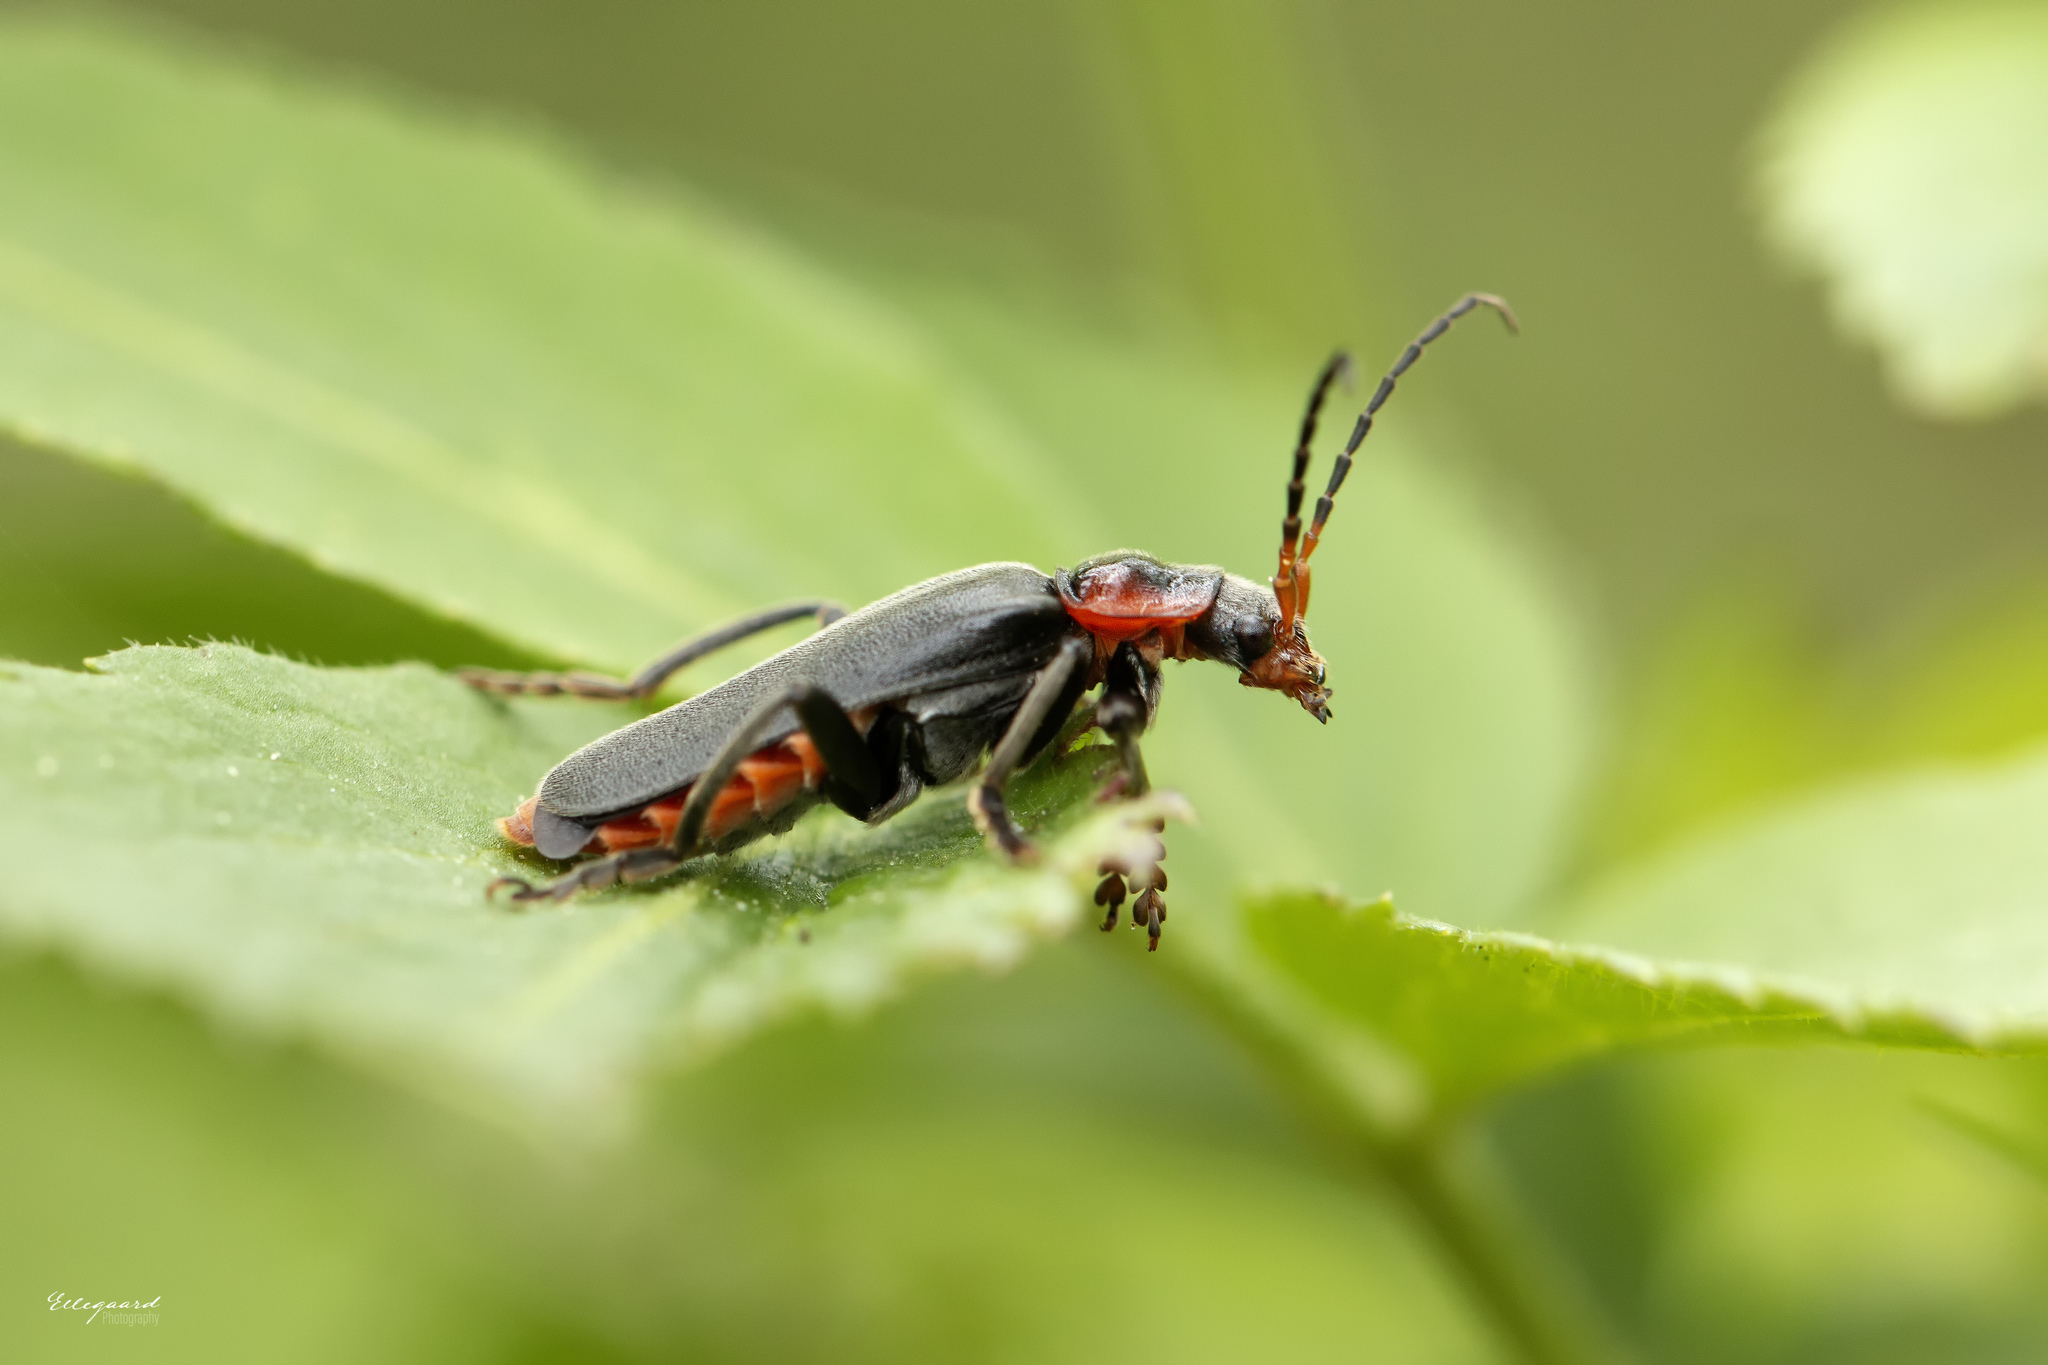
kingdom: Animalia
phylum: Arthropoda
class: Insecta
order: Coleoptera
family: Cantharidae
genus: Cantharis
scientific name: Cantharis fusca
